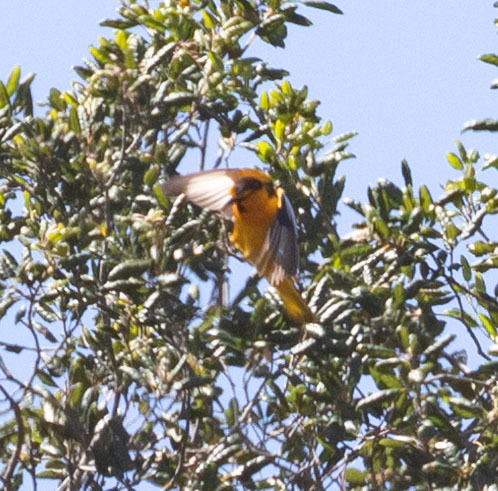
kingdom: Animalia
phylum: Chordata
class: Aves
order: Passeriformes
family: Icteridae
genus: Icterus
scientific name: Icterus bullockii
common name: Bullock's oriole
